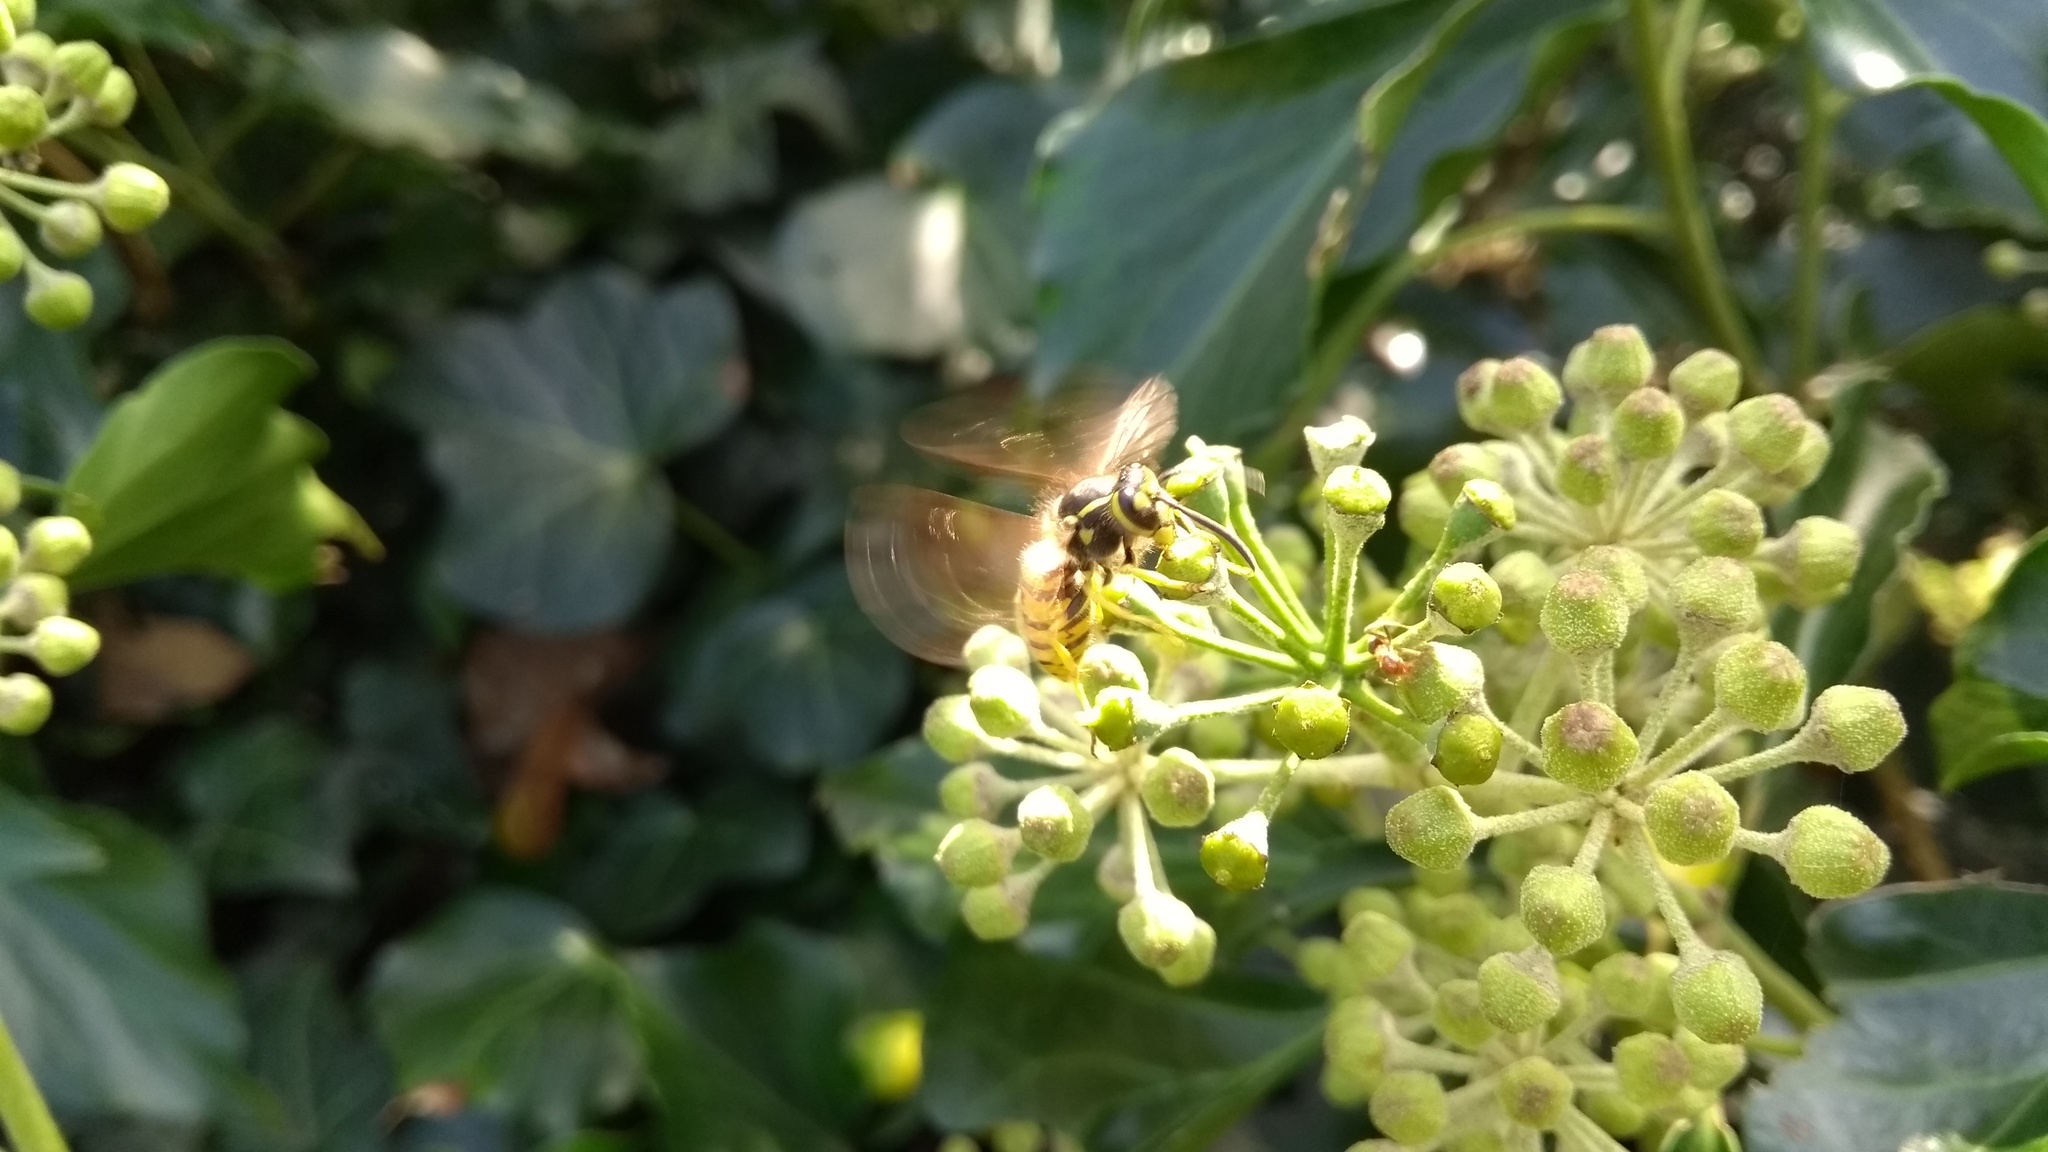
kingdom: Animalia
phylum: Arthropoda
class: Insecta
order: Hymenoptera
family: Vespidae
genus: Vespula
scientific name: Vespula germanica
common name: German wasp
